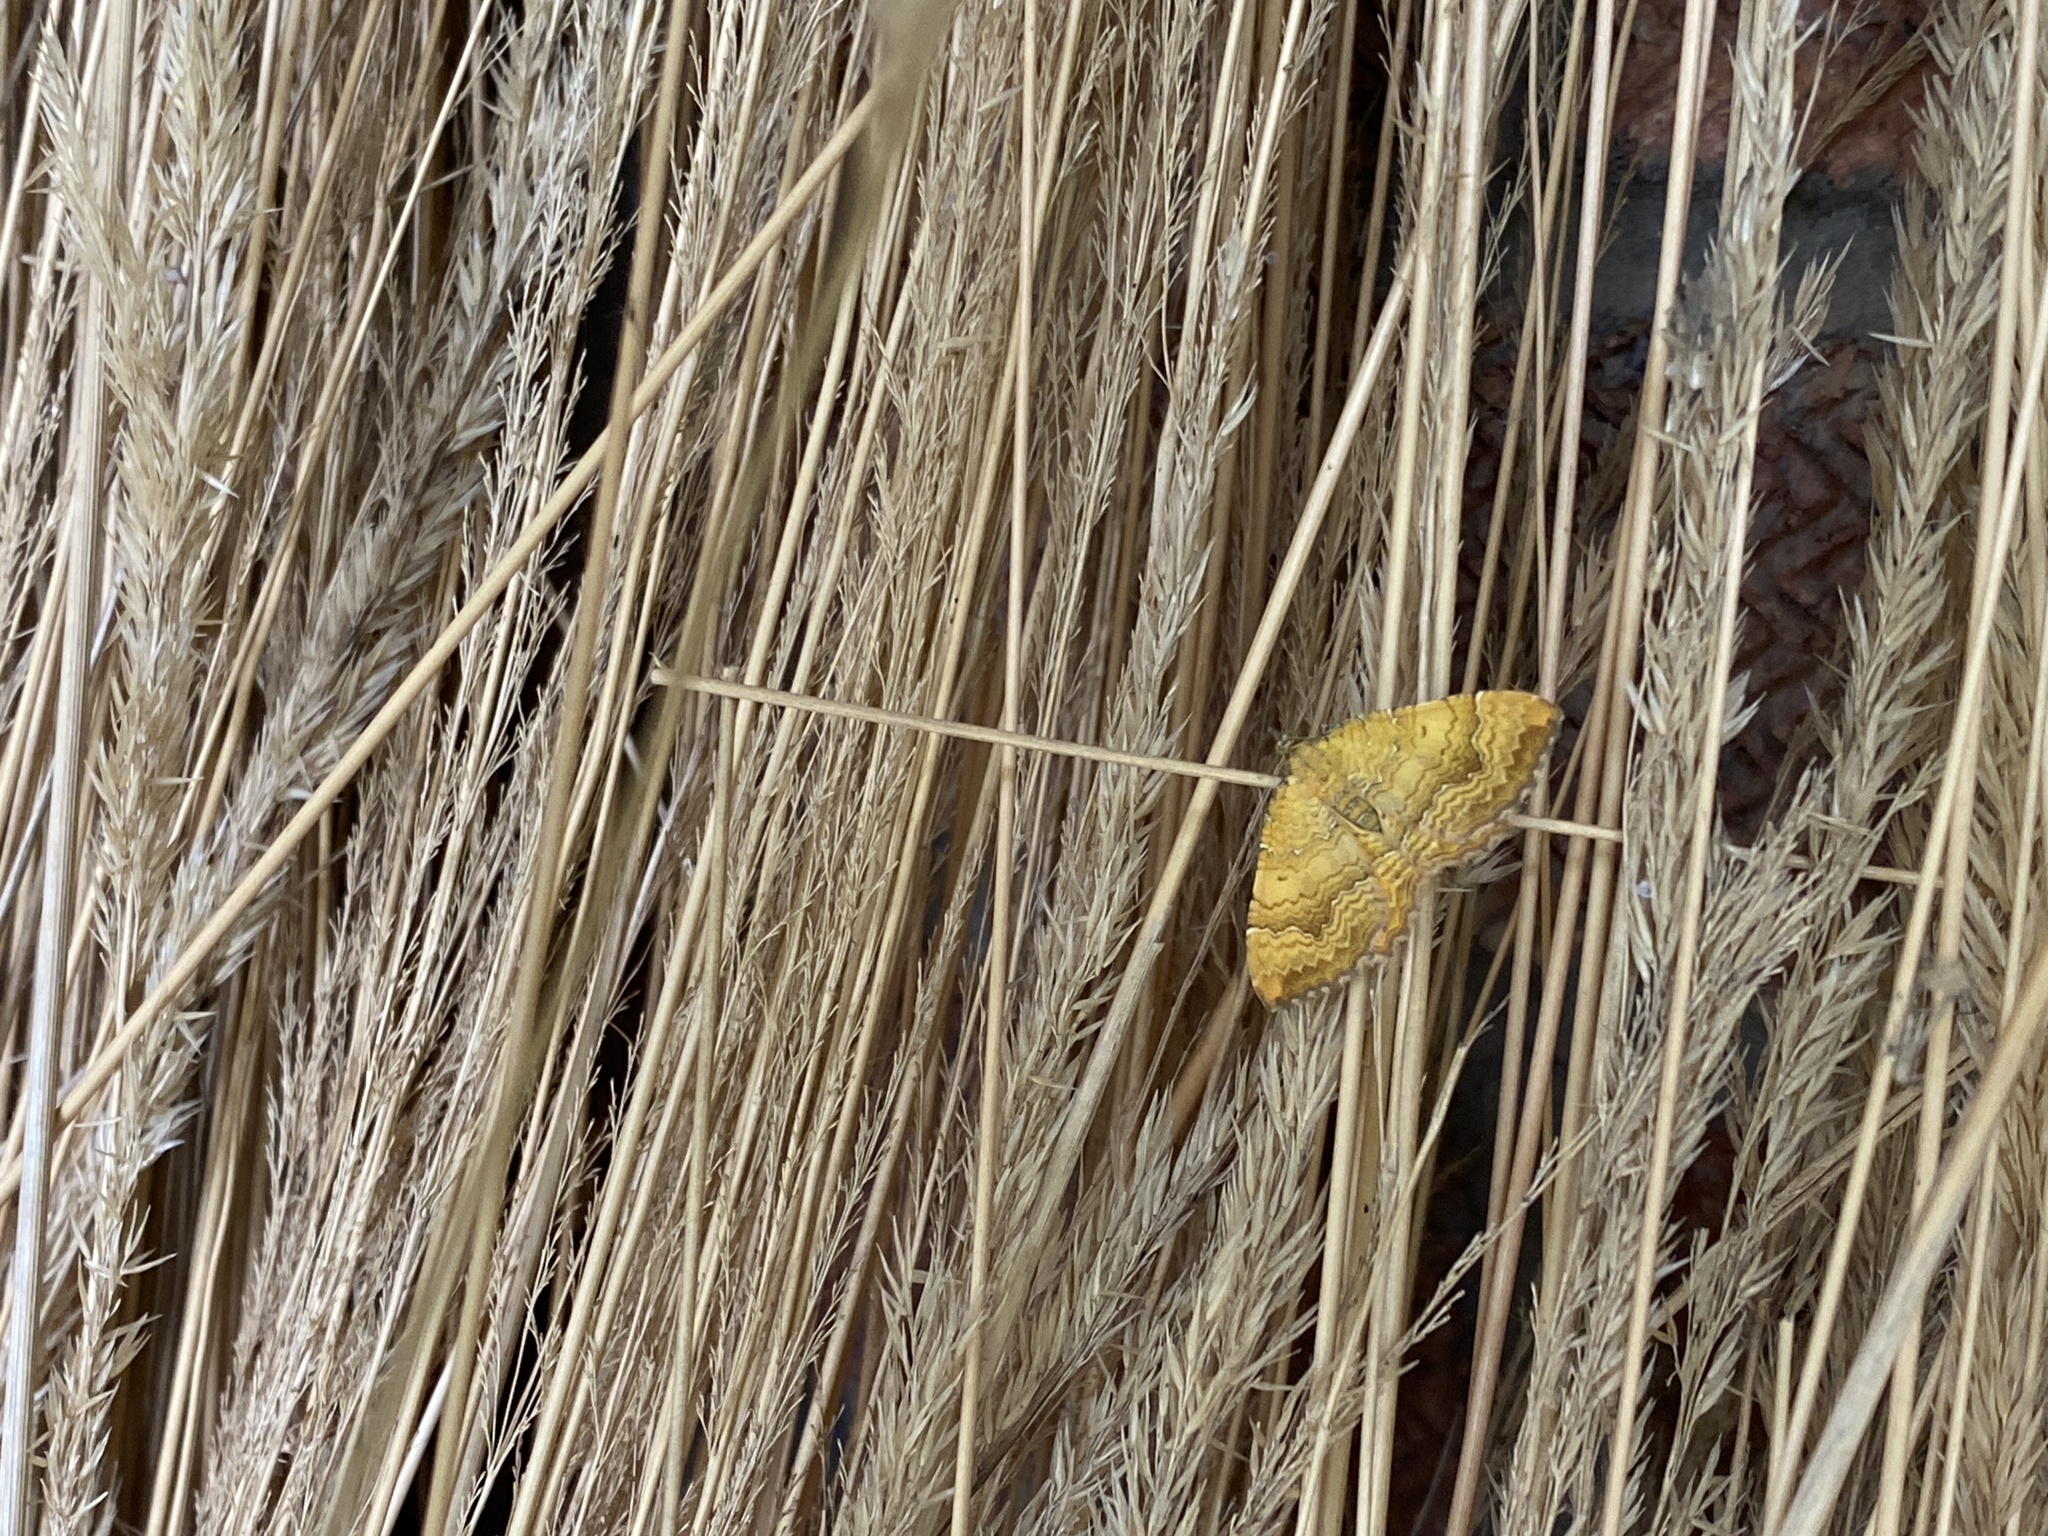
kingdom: Animalia
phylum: Arthropoda
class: Insecta
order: Lepidoptera
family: Geometridae
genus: Camptogramma
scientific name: Camptogramma bilineata
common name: Yellow shell
